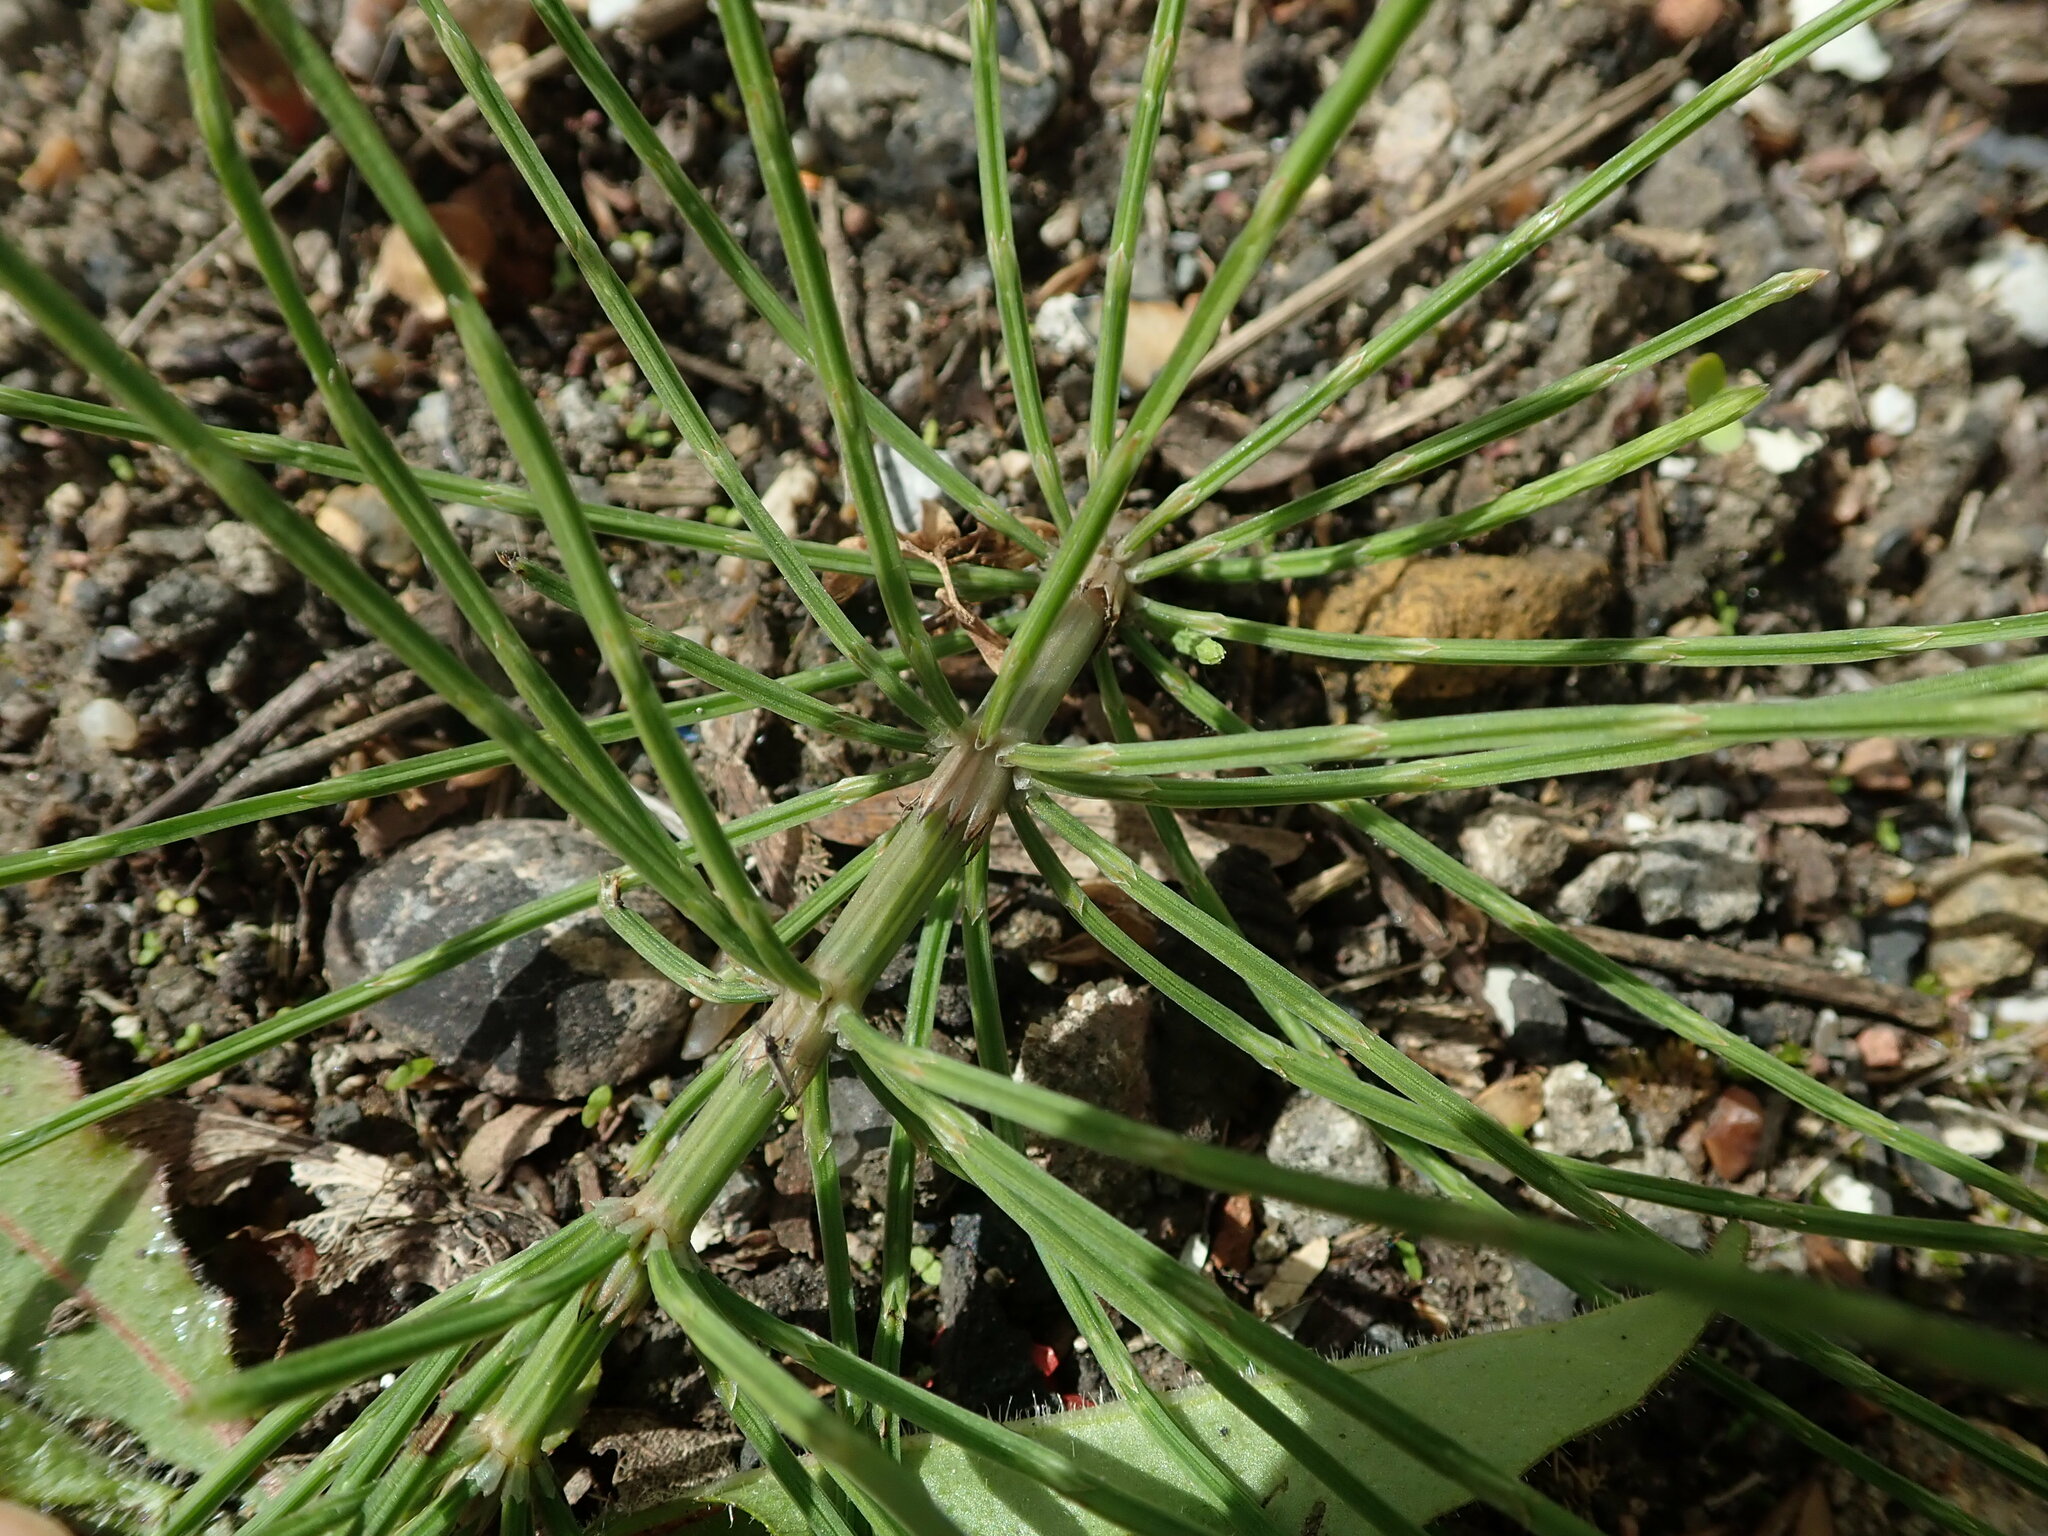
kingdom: Plantae
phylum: Tracheophyta
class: Polypodiopsida
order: Equisetales
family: Equisetaceae
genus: Equisetum
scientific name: Equisetum arvense
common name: Field horsetail
